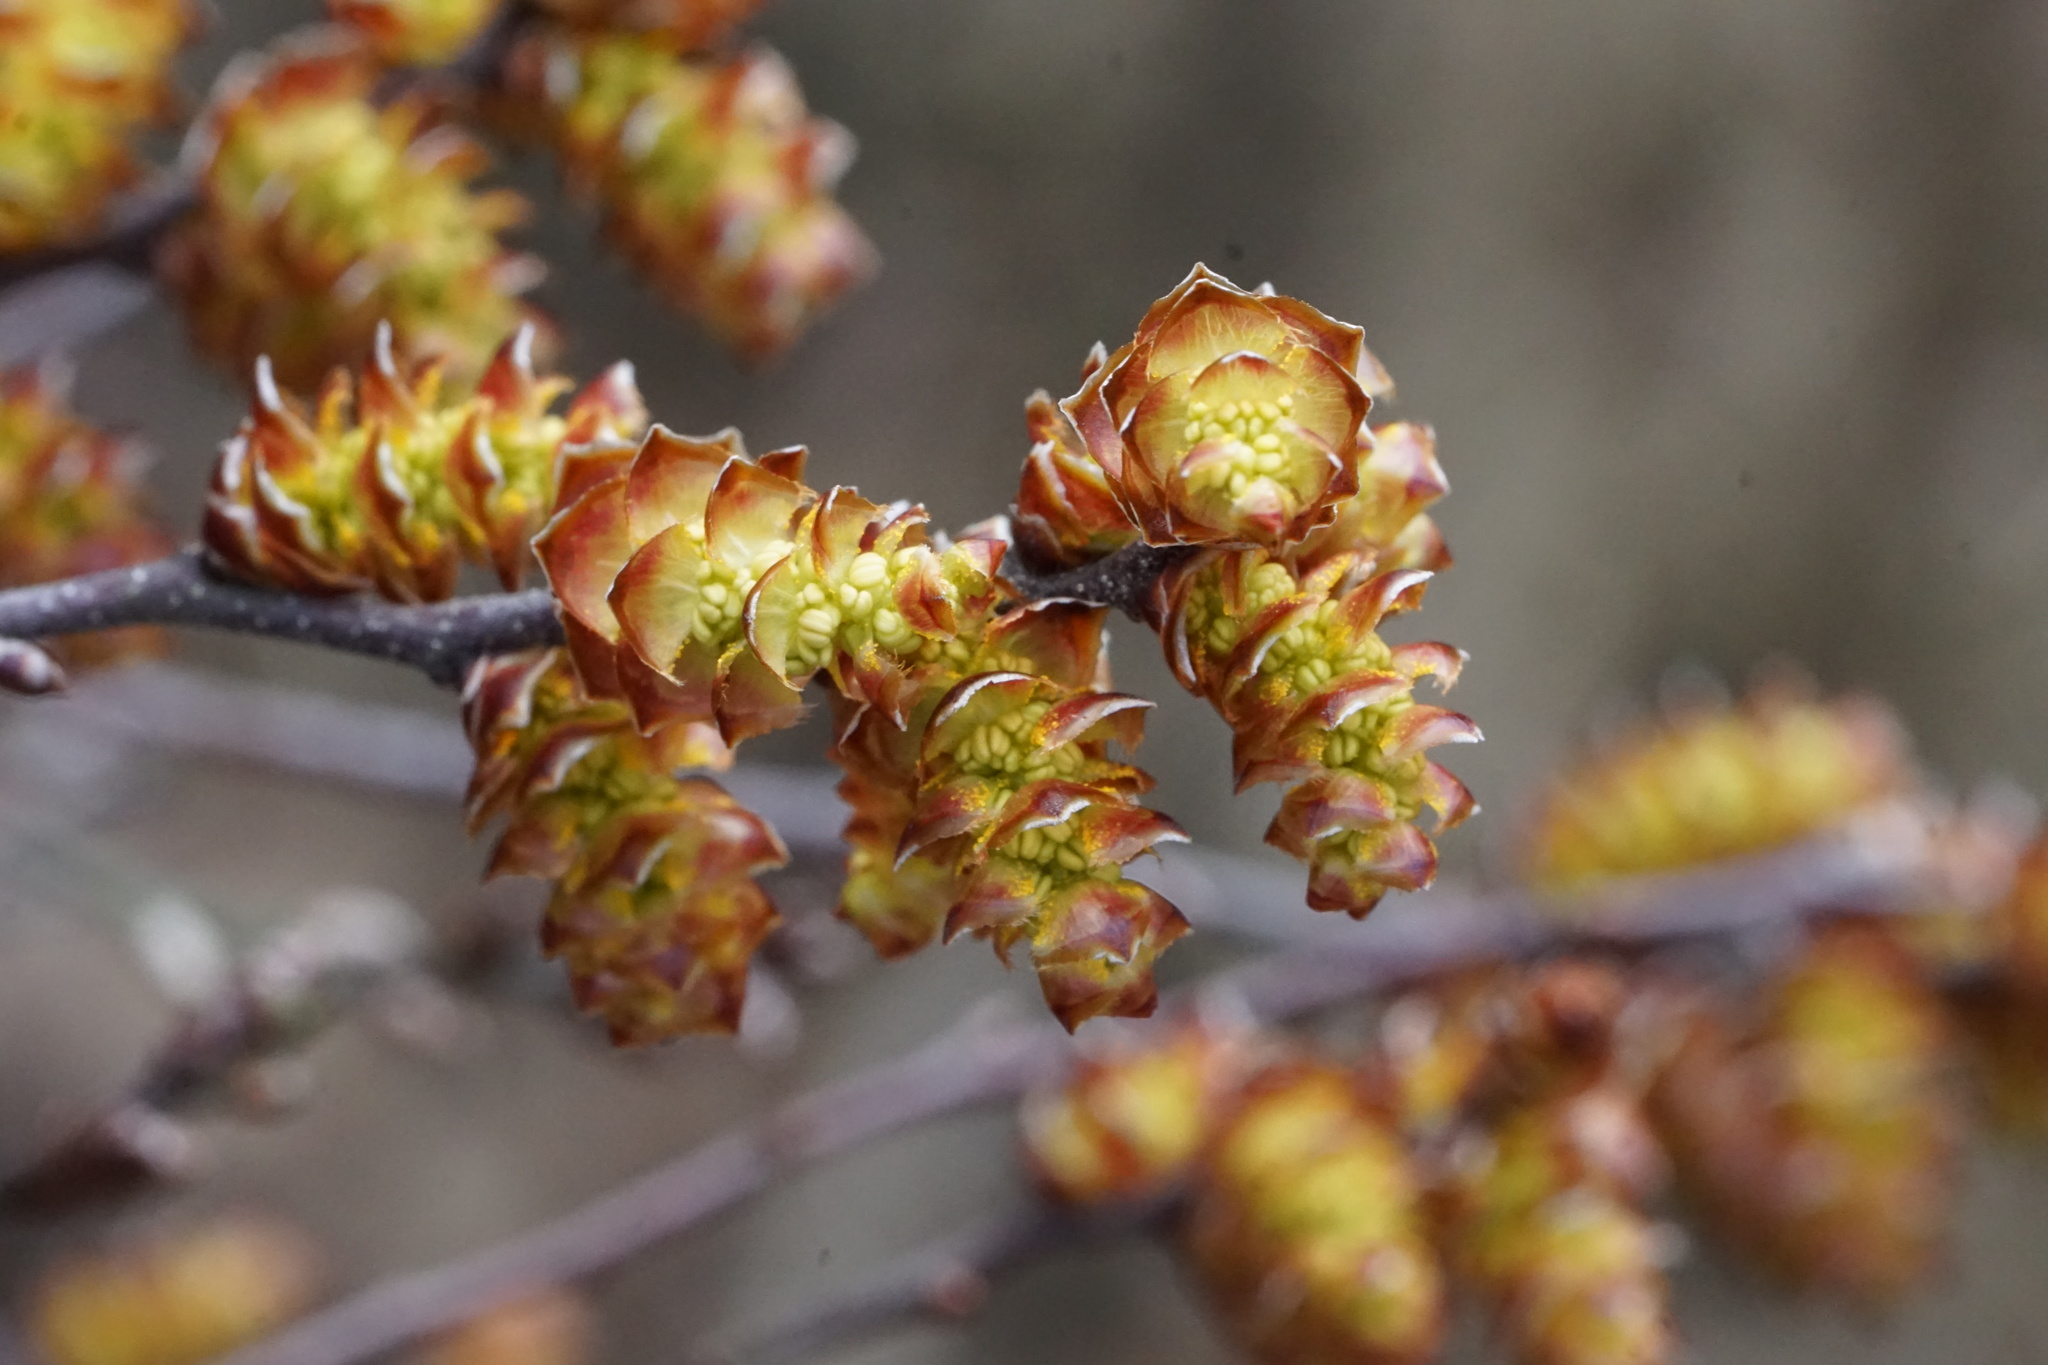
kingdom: Plantae
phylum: Tracheophyta
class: Magnoliopsida
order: Fagales
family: Myricaceae
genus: Myrica
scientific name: Myrica gale
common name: Sweet gale
